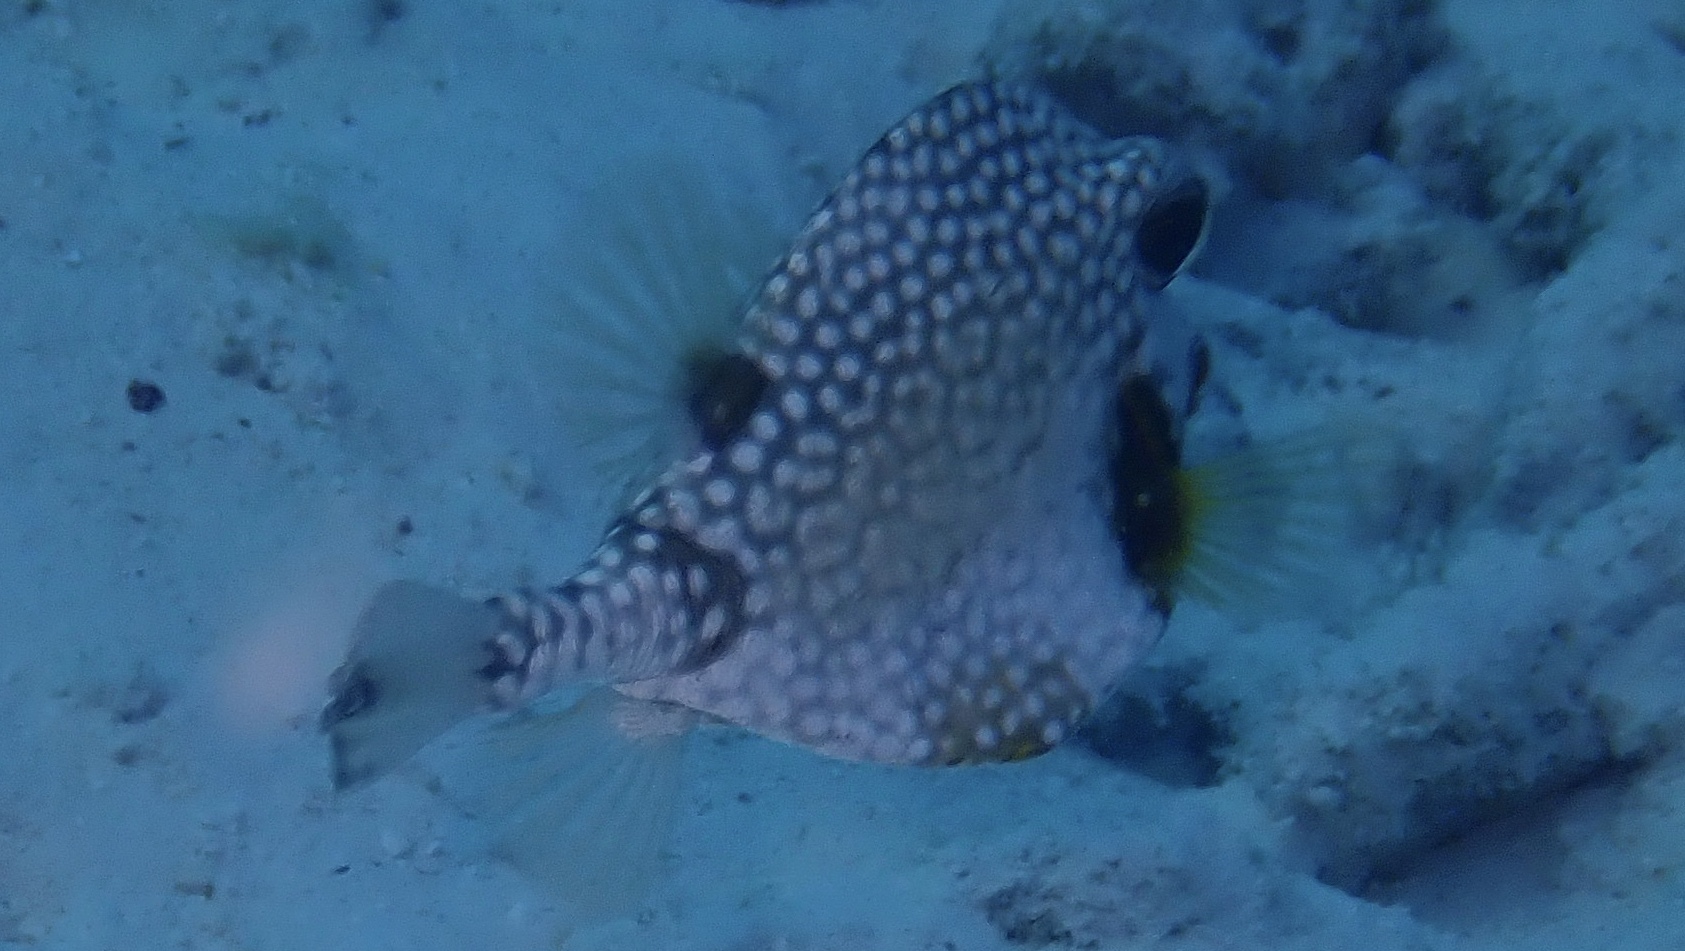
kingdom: Animalia
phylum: Chordata
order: Tetraodontiformes
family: Ostraciidae
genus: Lactophrys
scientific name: Lactophrys triqueter
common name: Smooth trunkfish
